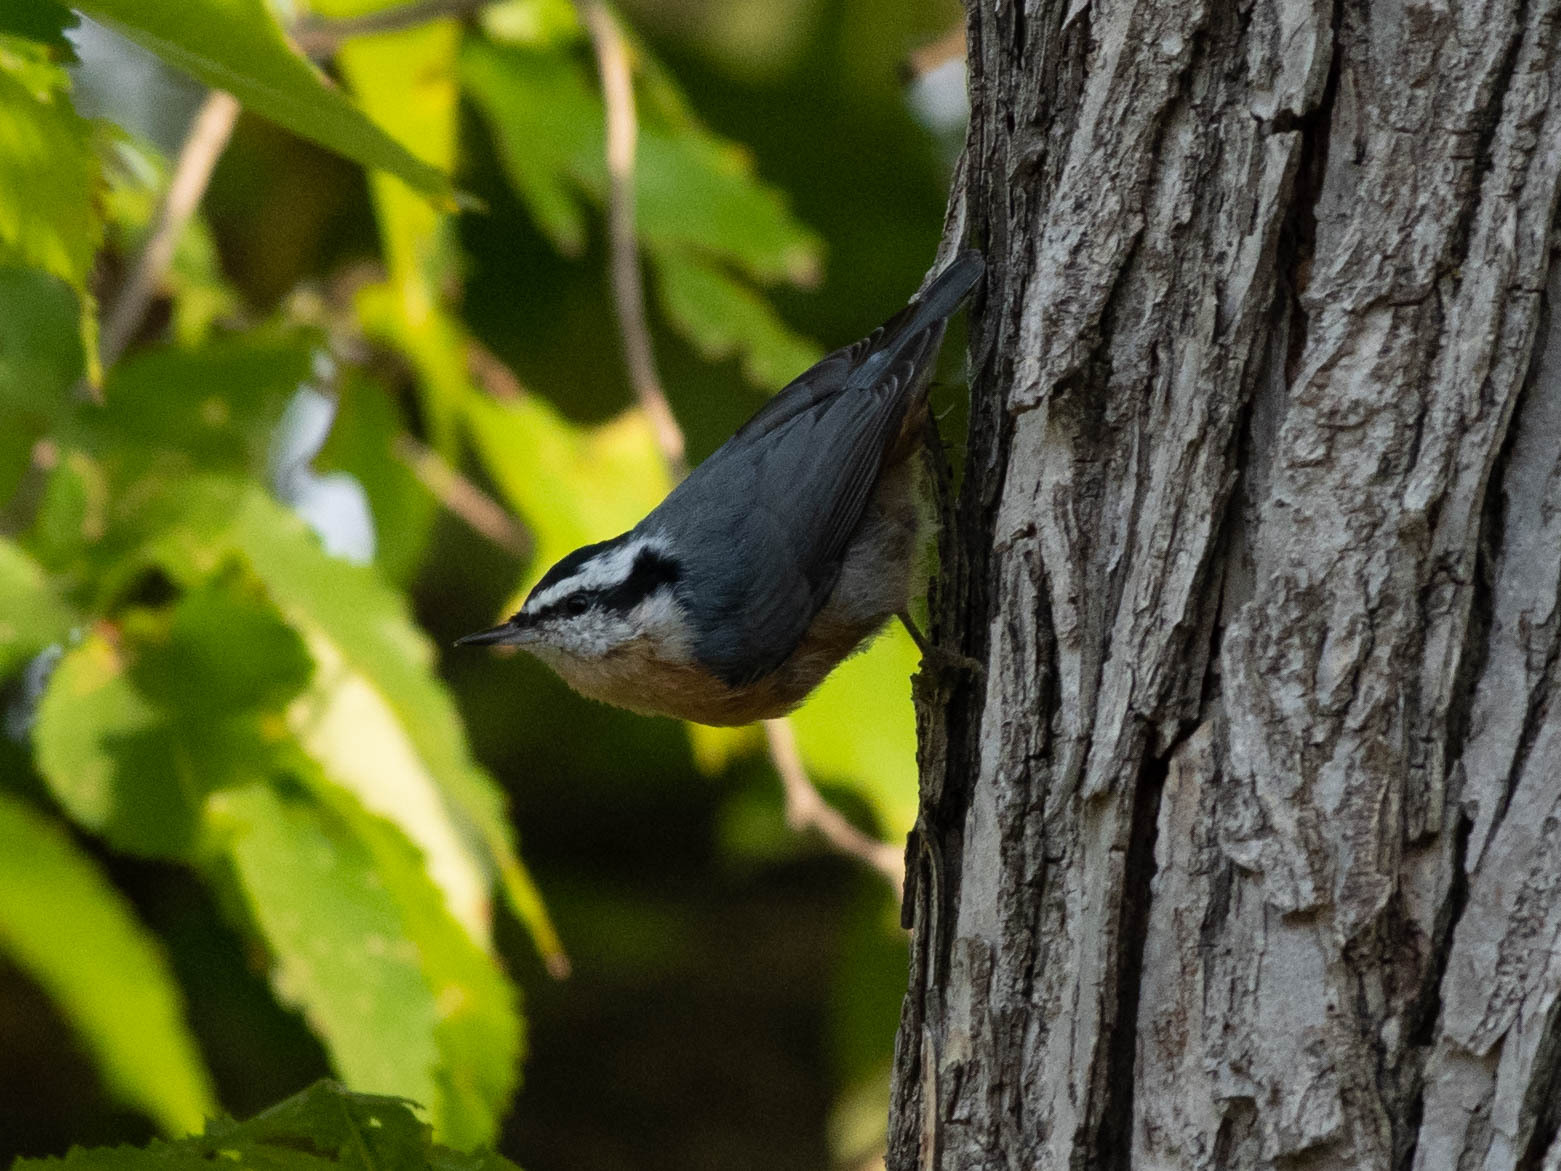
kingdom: Animalia
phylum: Chordata
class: Aves
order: Passeriformes
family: Sittidae
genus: Sitta
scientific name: Sitta canadensis
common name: Red-breasted nuthatch
